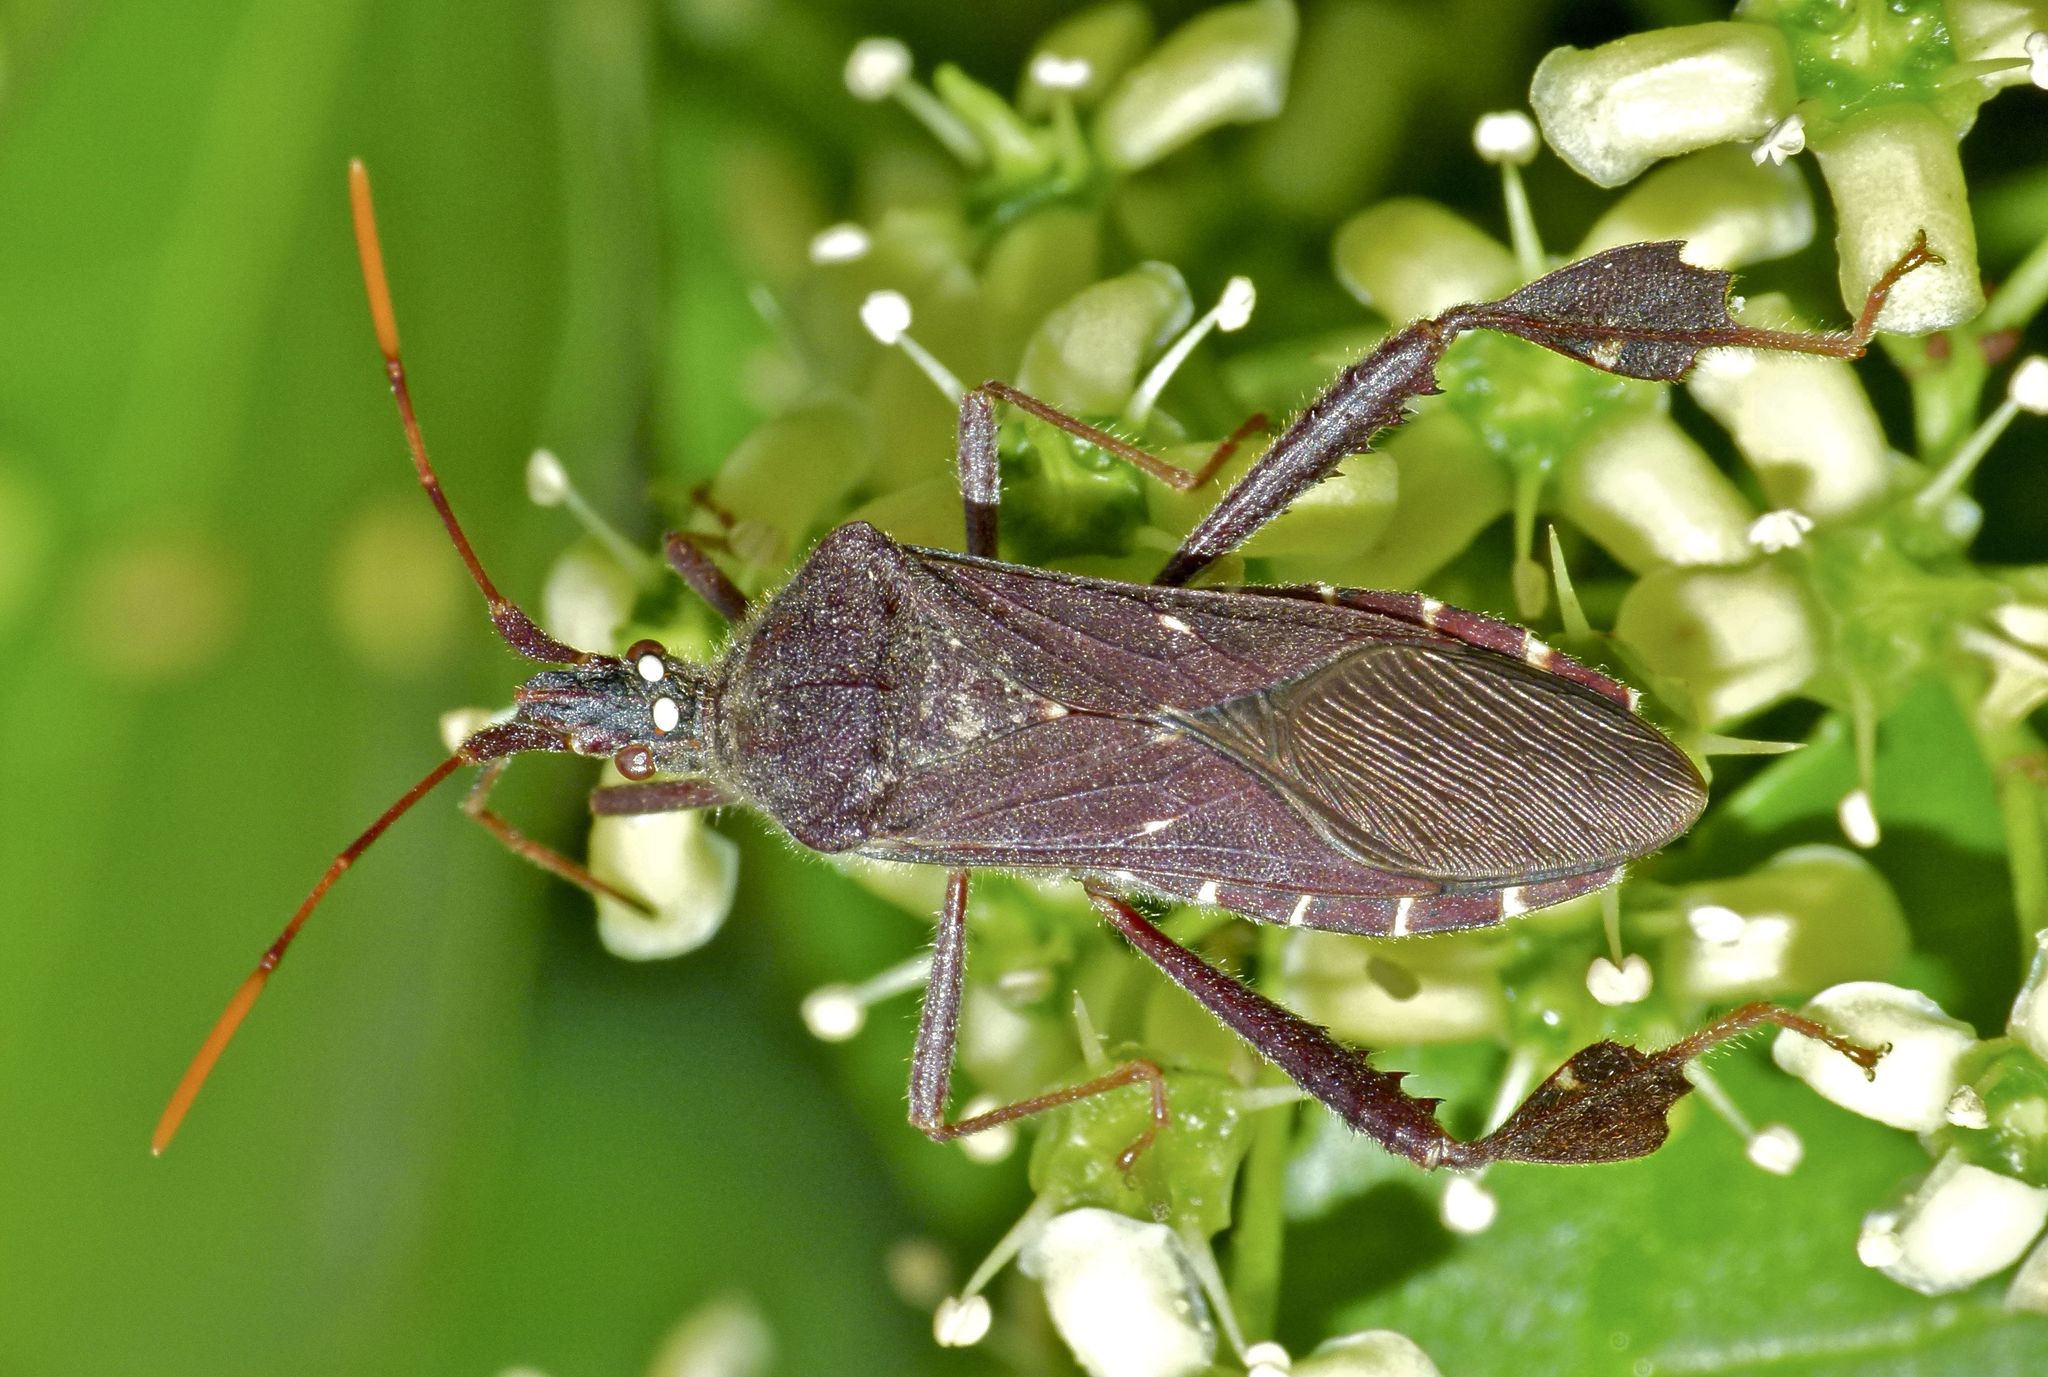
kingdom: Animalia
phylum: Arthropoda
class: Insecta
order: Hemiptera
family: Coreidae
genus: Leptoglossus
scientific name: Leptoglossus oppositus
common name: Northern leaf-footed bug
